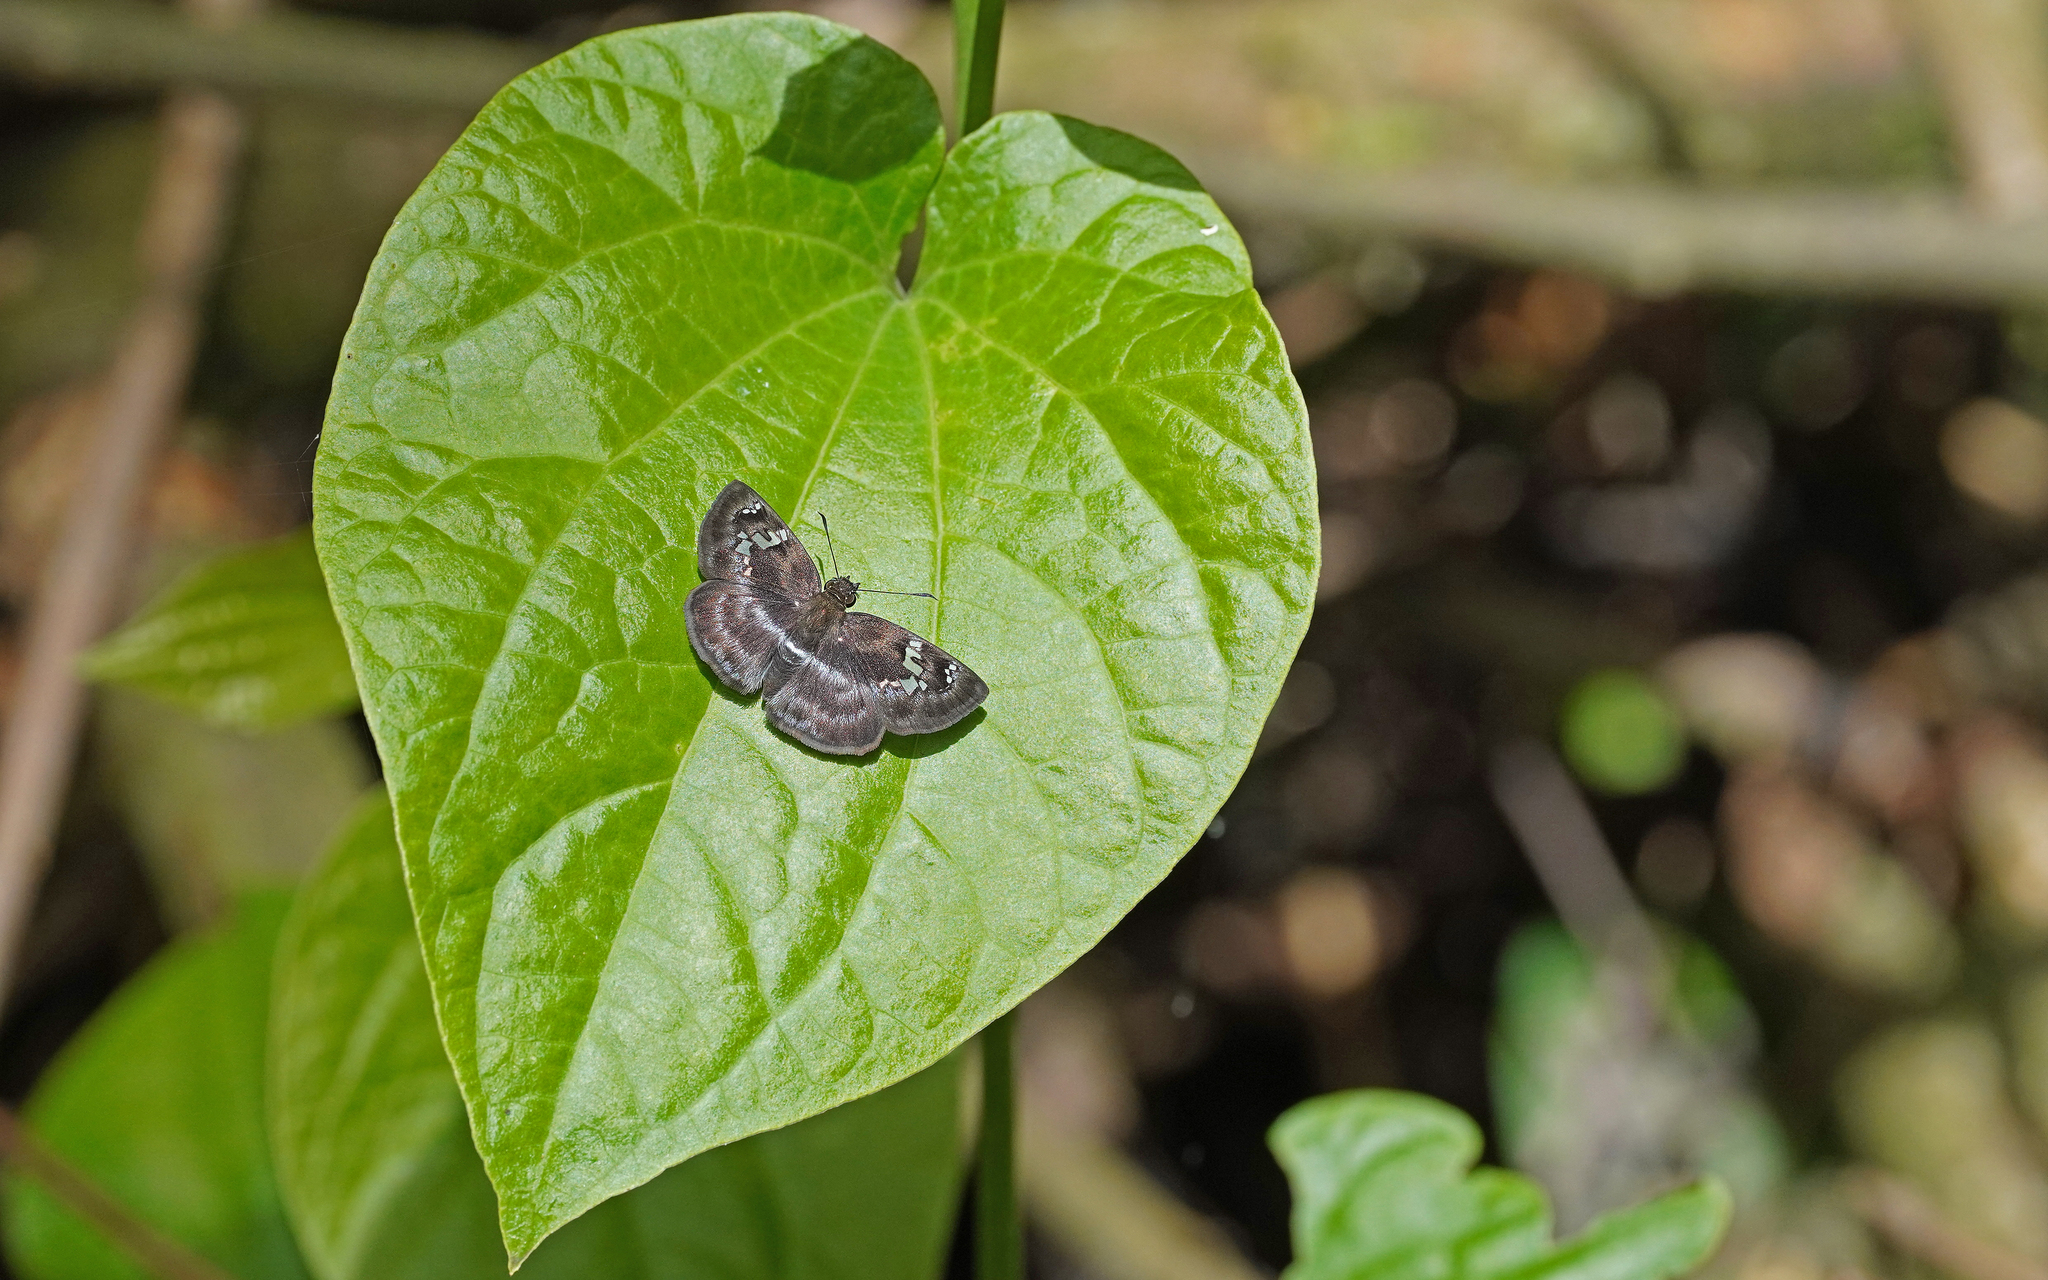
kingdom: Animalia
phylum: Arthropoda
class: Insecta
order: Lepidoptera
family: Hesperiidae
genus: Quadrus
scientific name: Quadrus cerialis
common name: Common blue-skipper
